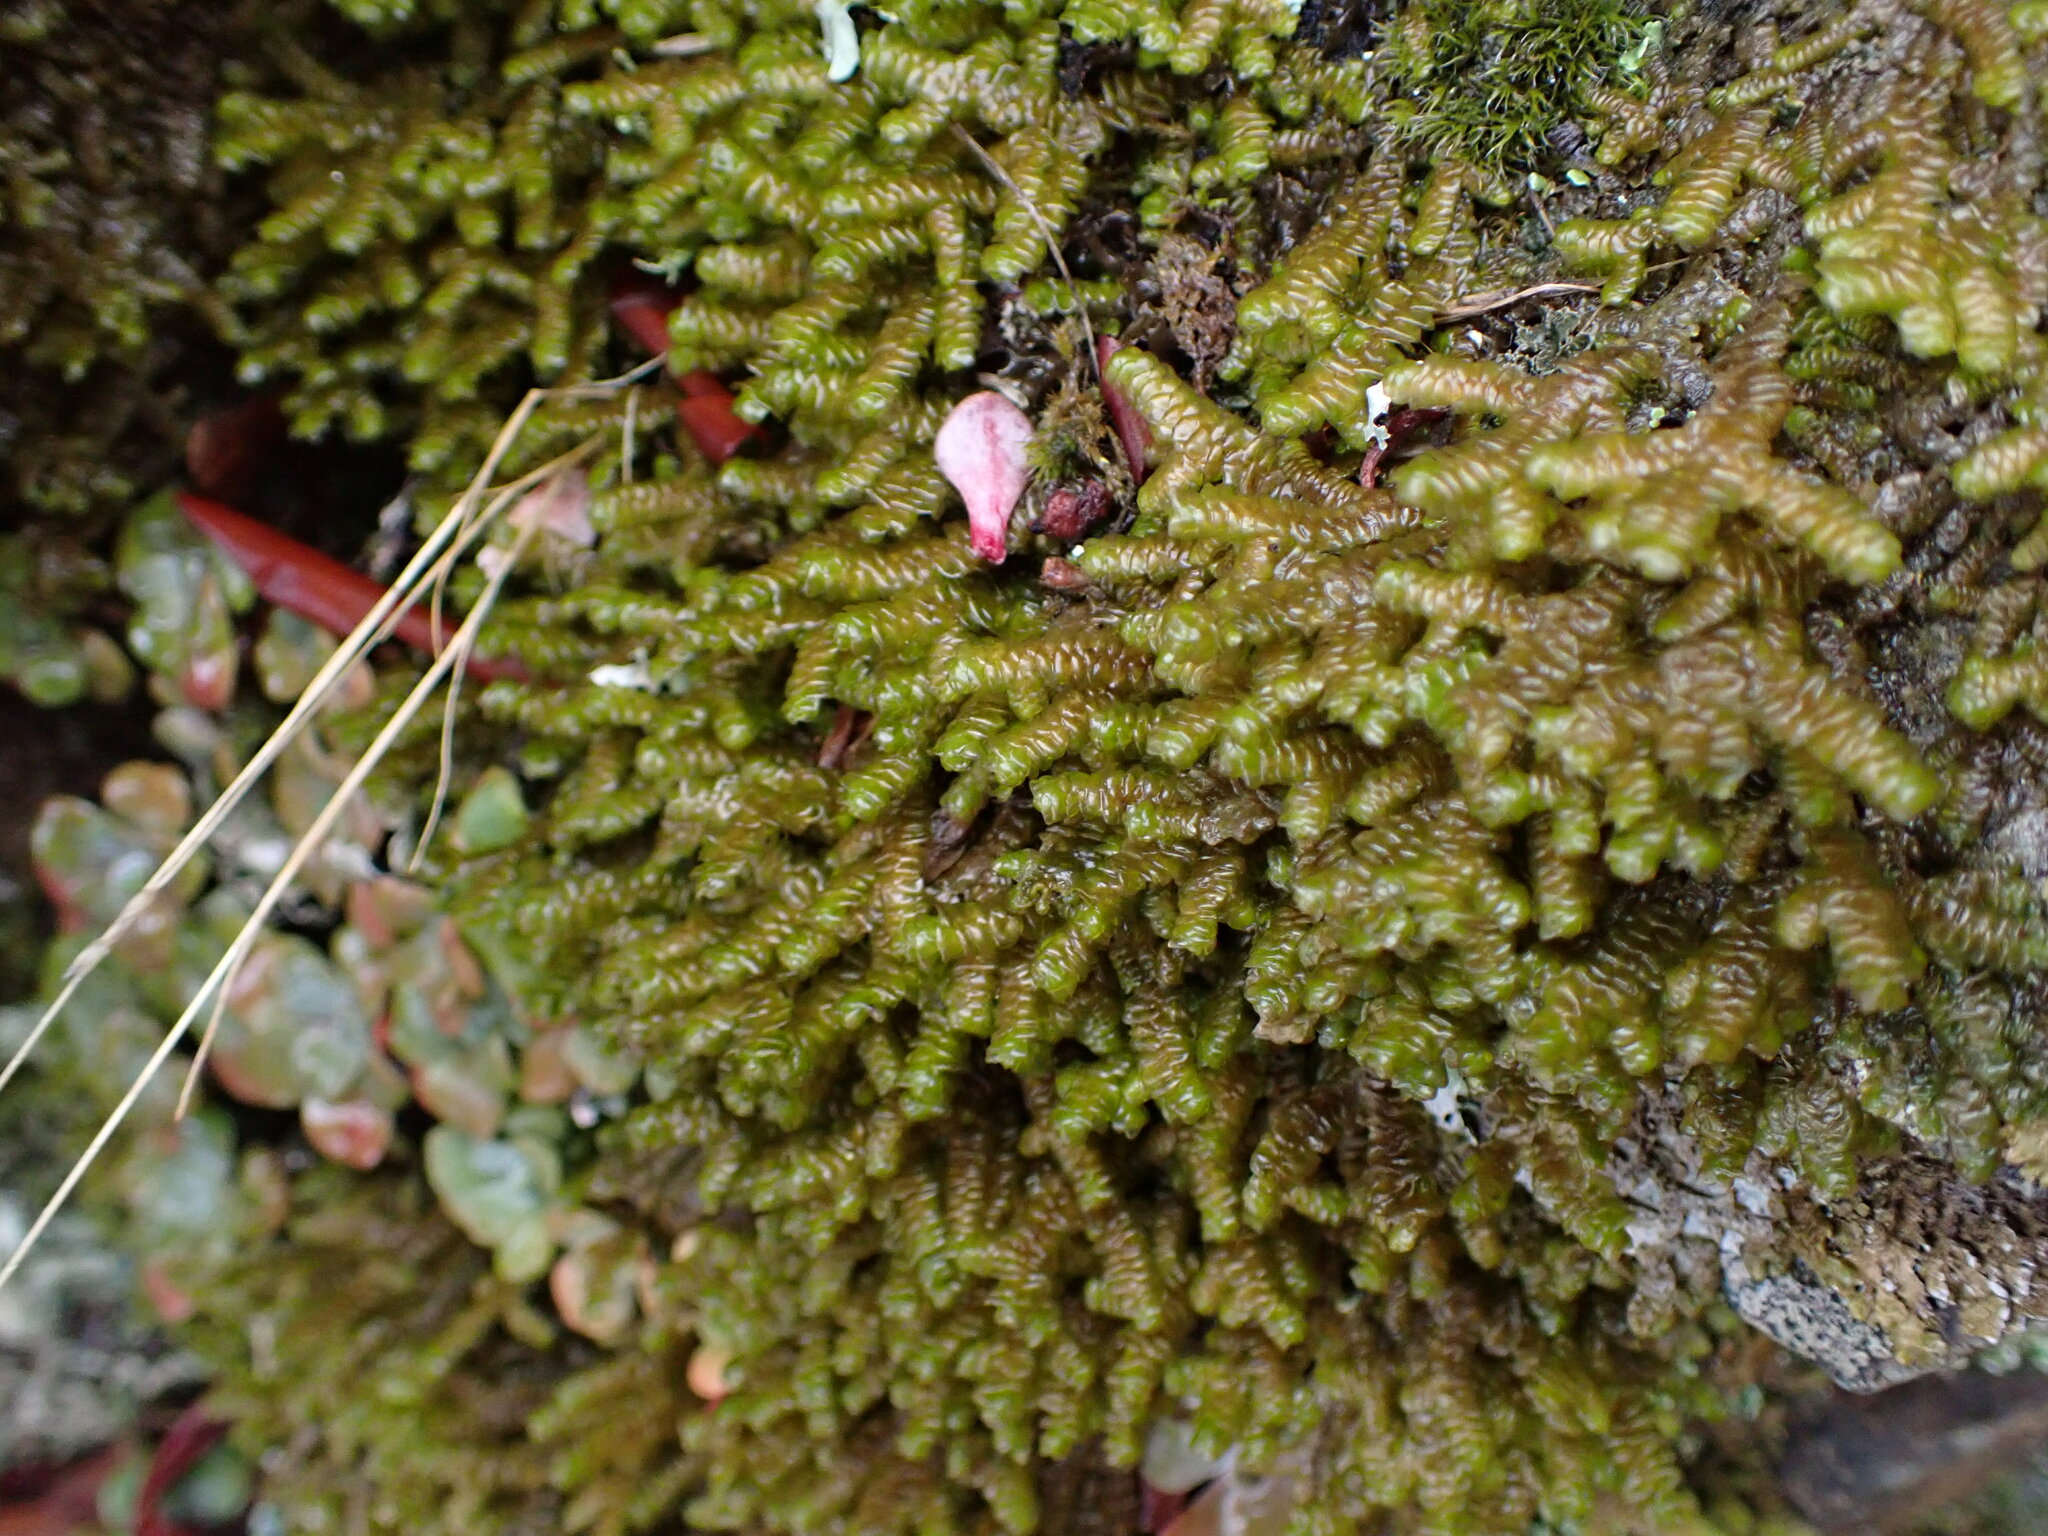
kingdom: Plantae
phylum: Marchantiophyta
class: Jungermanniopsida
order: Porellales
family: Porellaceae
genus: Porella
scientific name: Porella roellii
